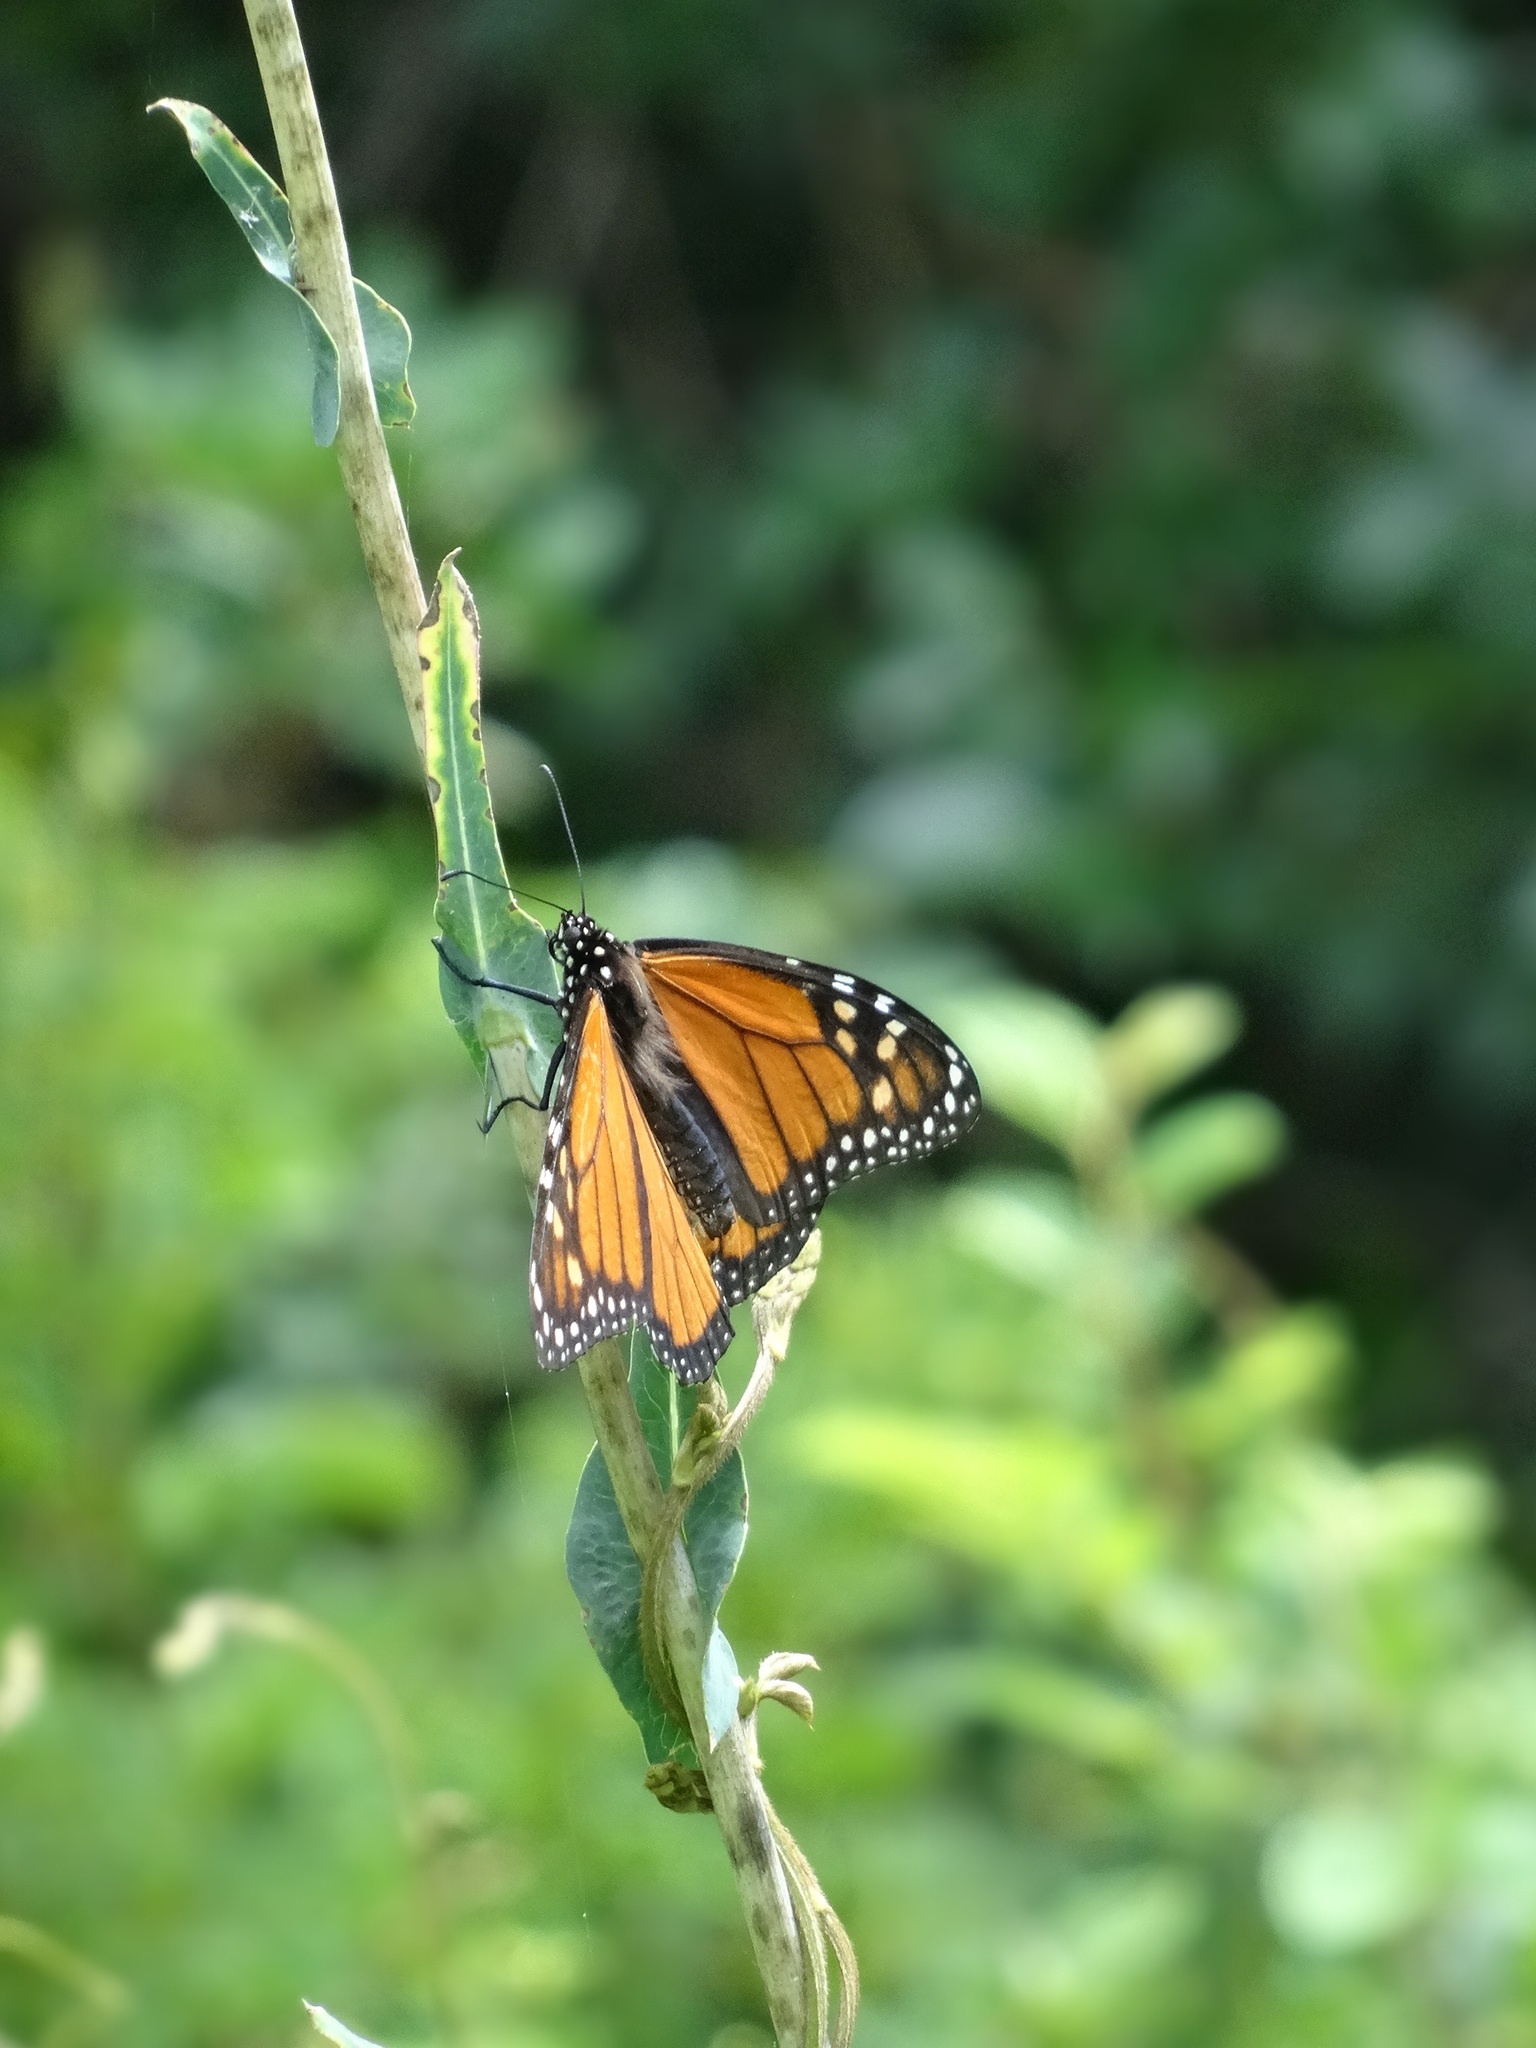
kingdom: Animalia
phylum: Arthropoda
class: Insecta
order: Lepidoptera
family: Nymphalidae
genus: Danaus
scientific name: Danaus plexippus
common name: Monarch
